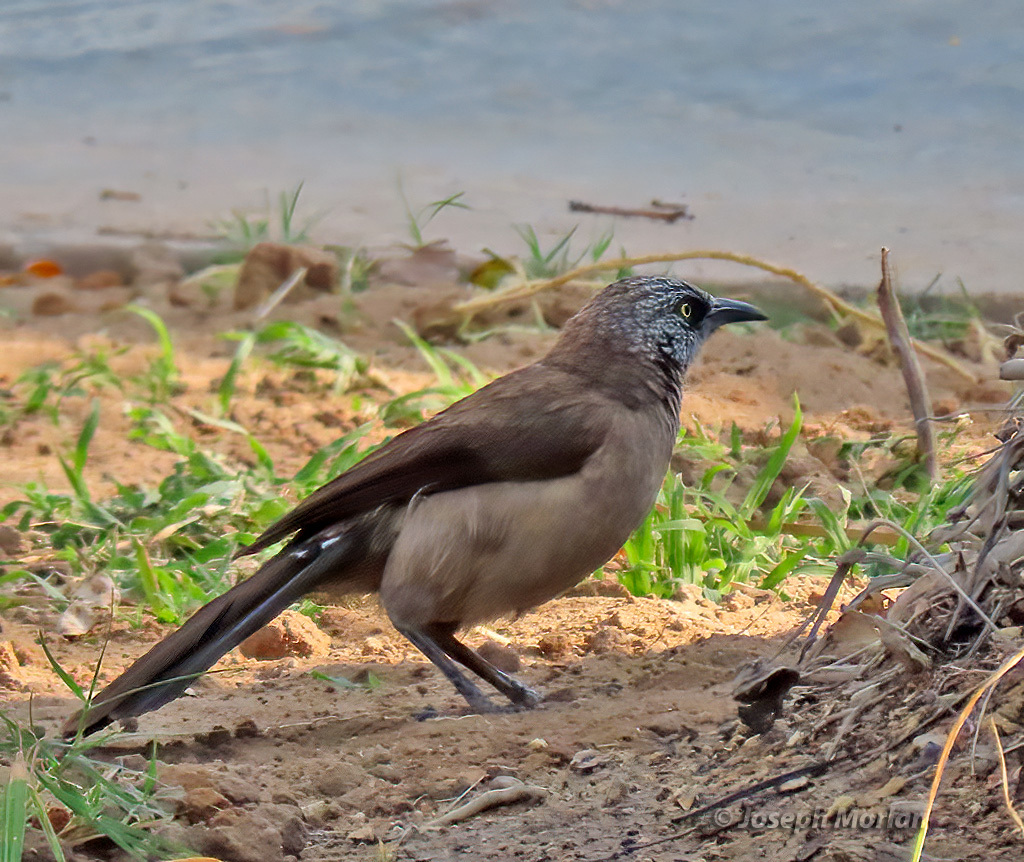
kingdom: Animalia
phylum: Chordata
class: Aves
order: Passeriformes
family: Leiothrichidae
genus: Turdoides
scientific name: Turdoides melanops
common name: Black-faced babbler
